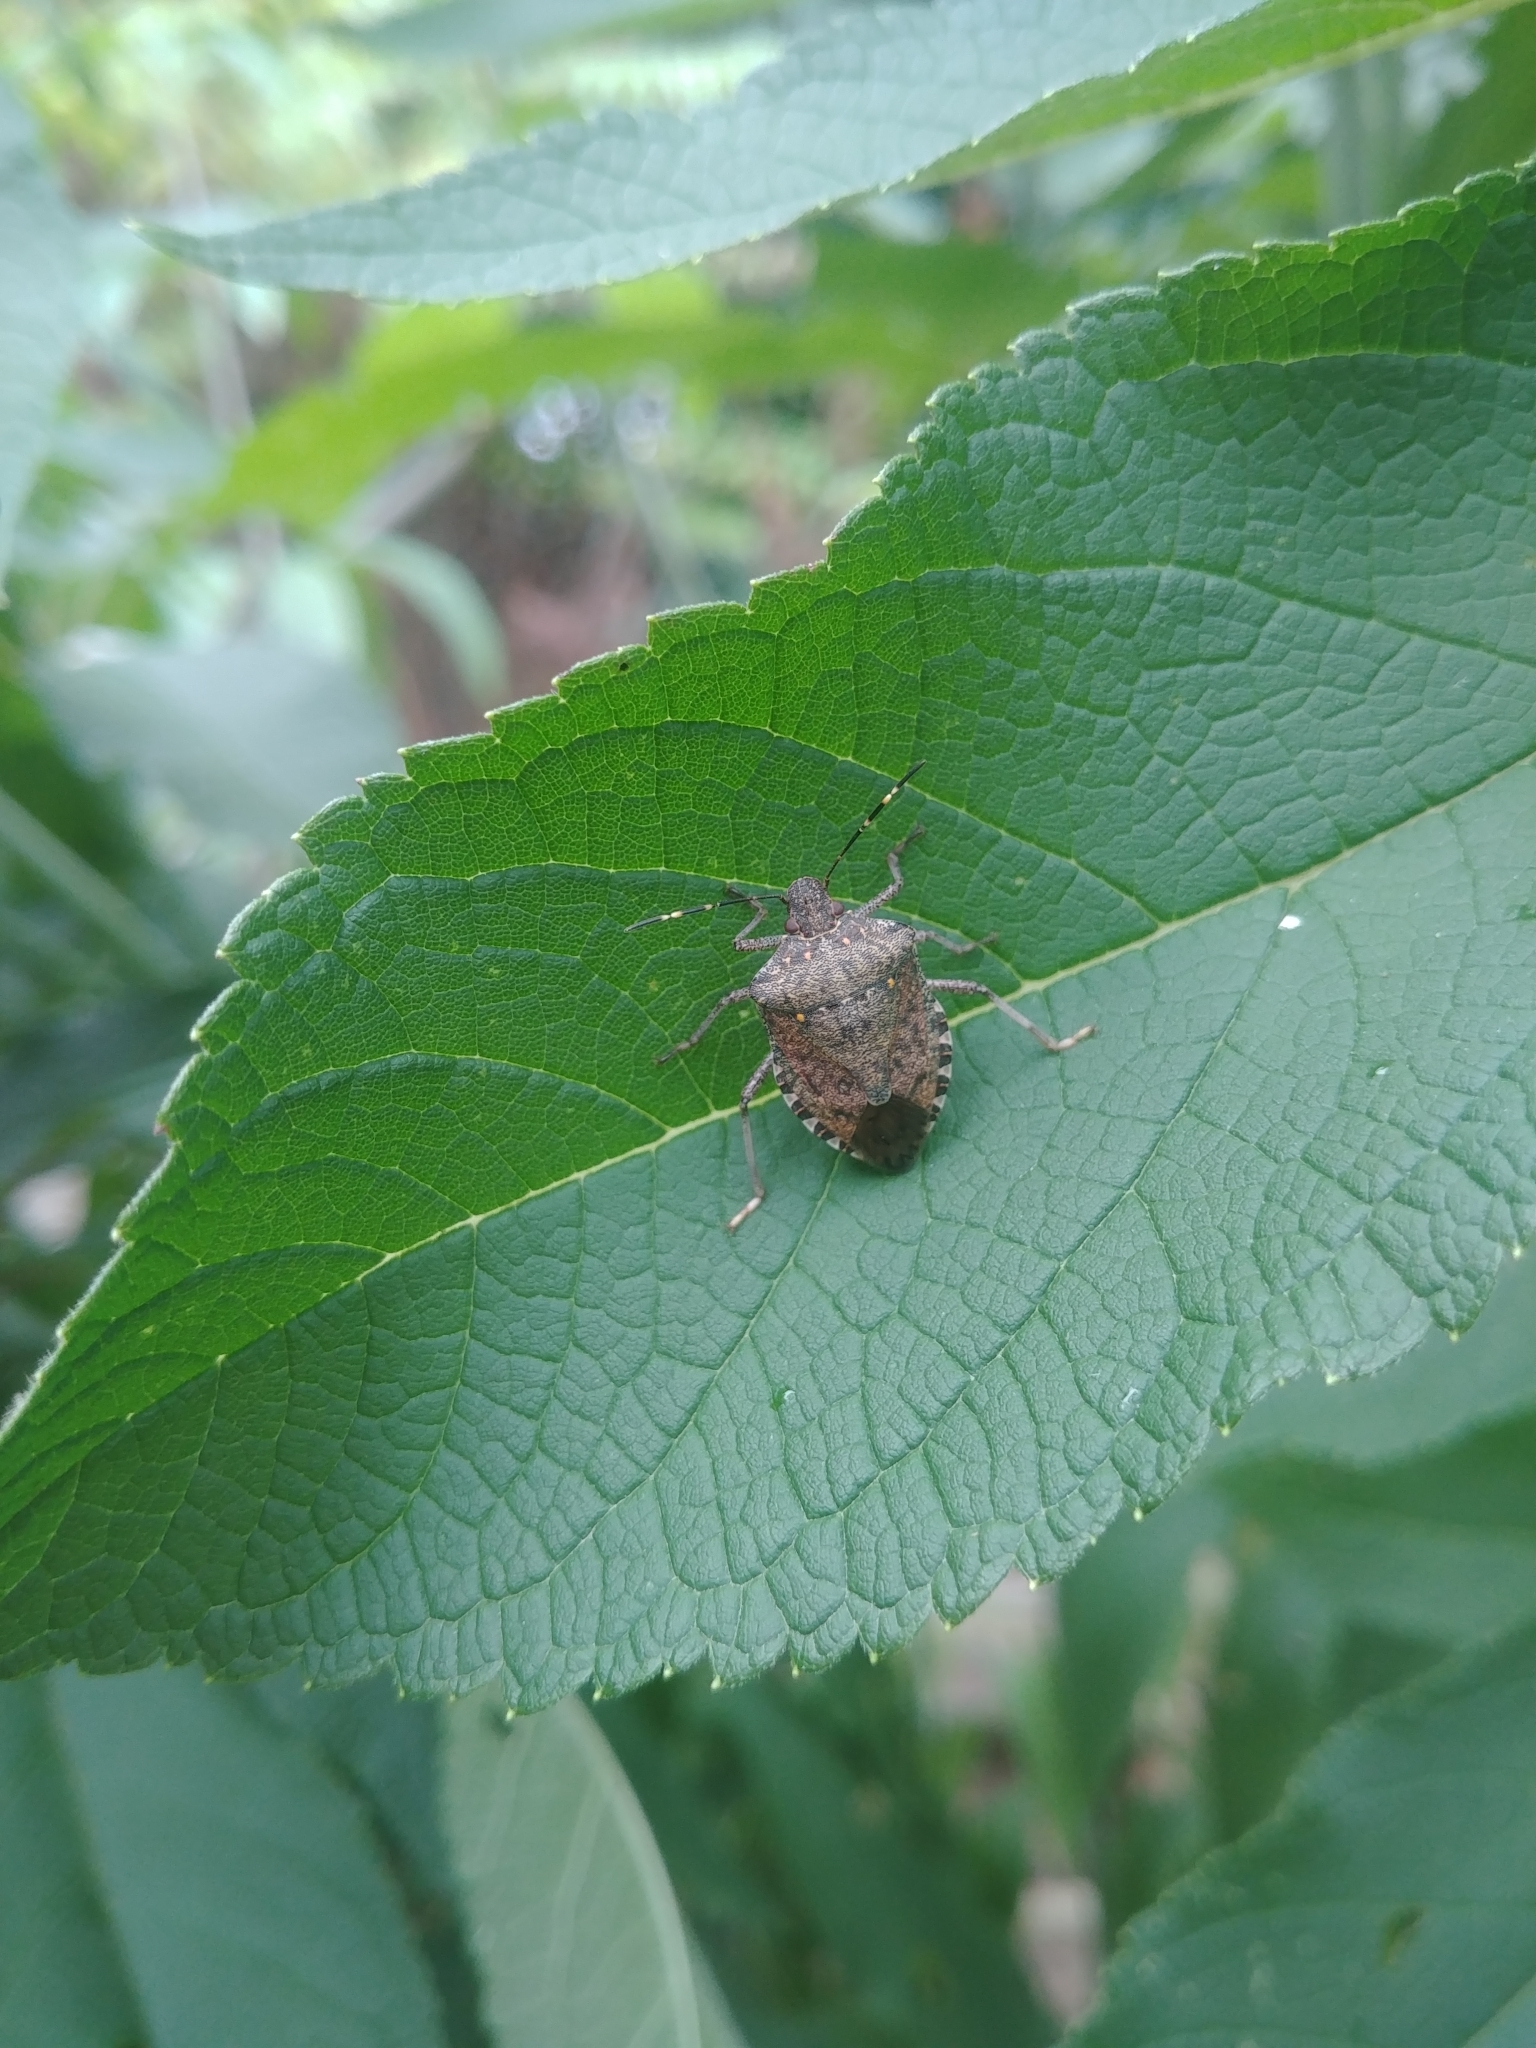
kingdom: Animalia
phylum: Arthropoda
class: Insecta
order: Hemiptera
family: Pentatomidae
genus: Halyomorpha
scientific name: Halyomorpha halys
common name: Brown marmorated stink bug
